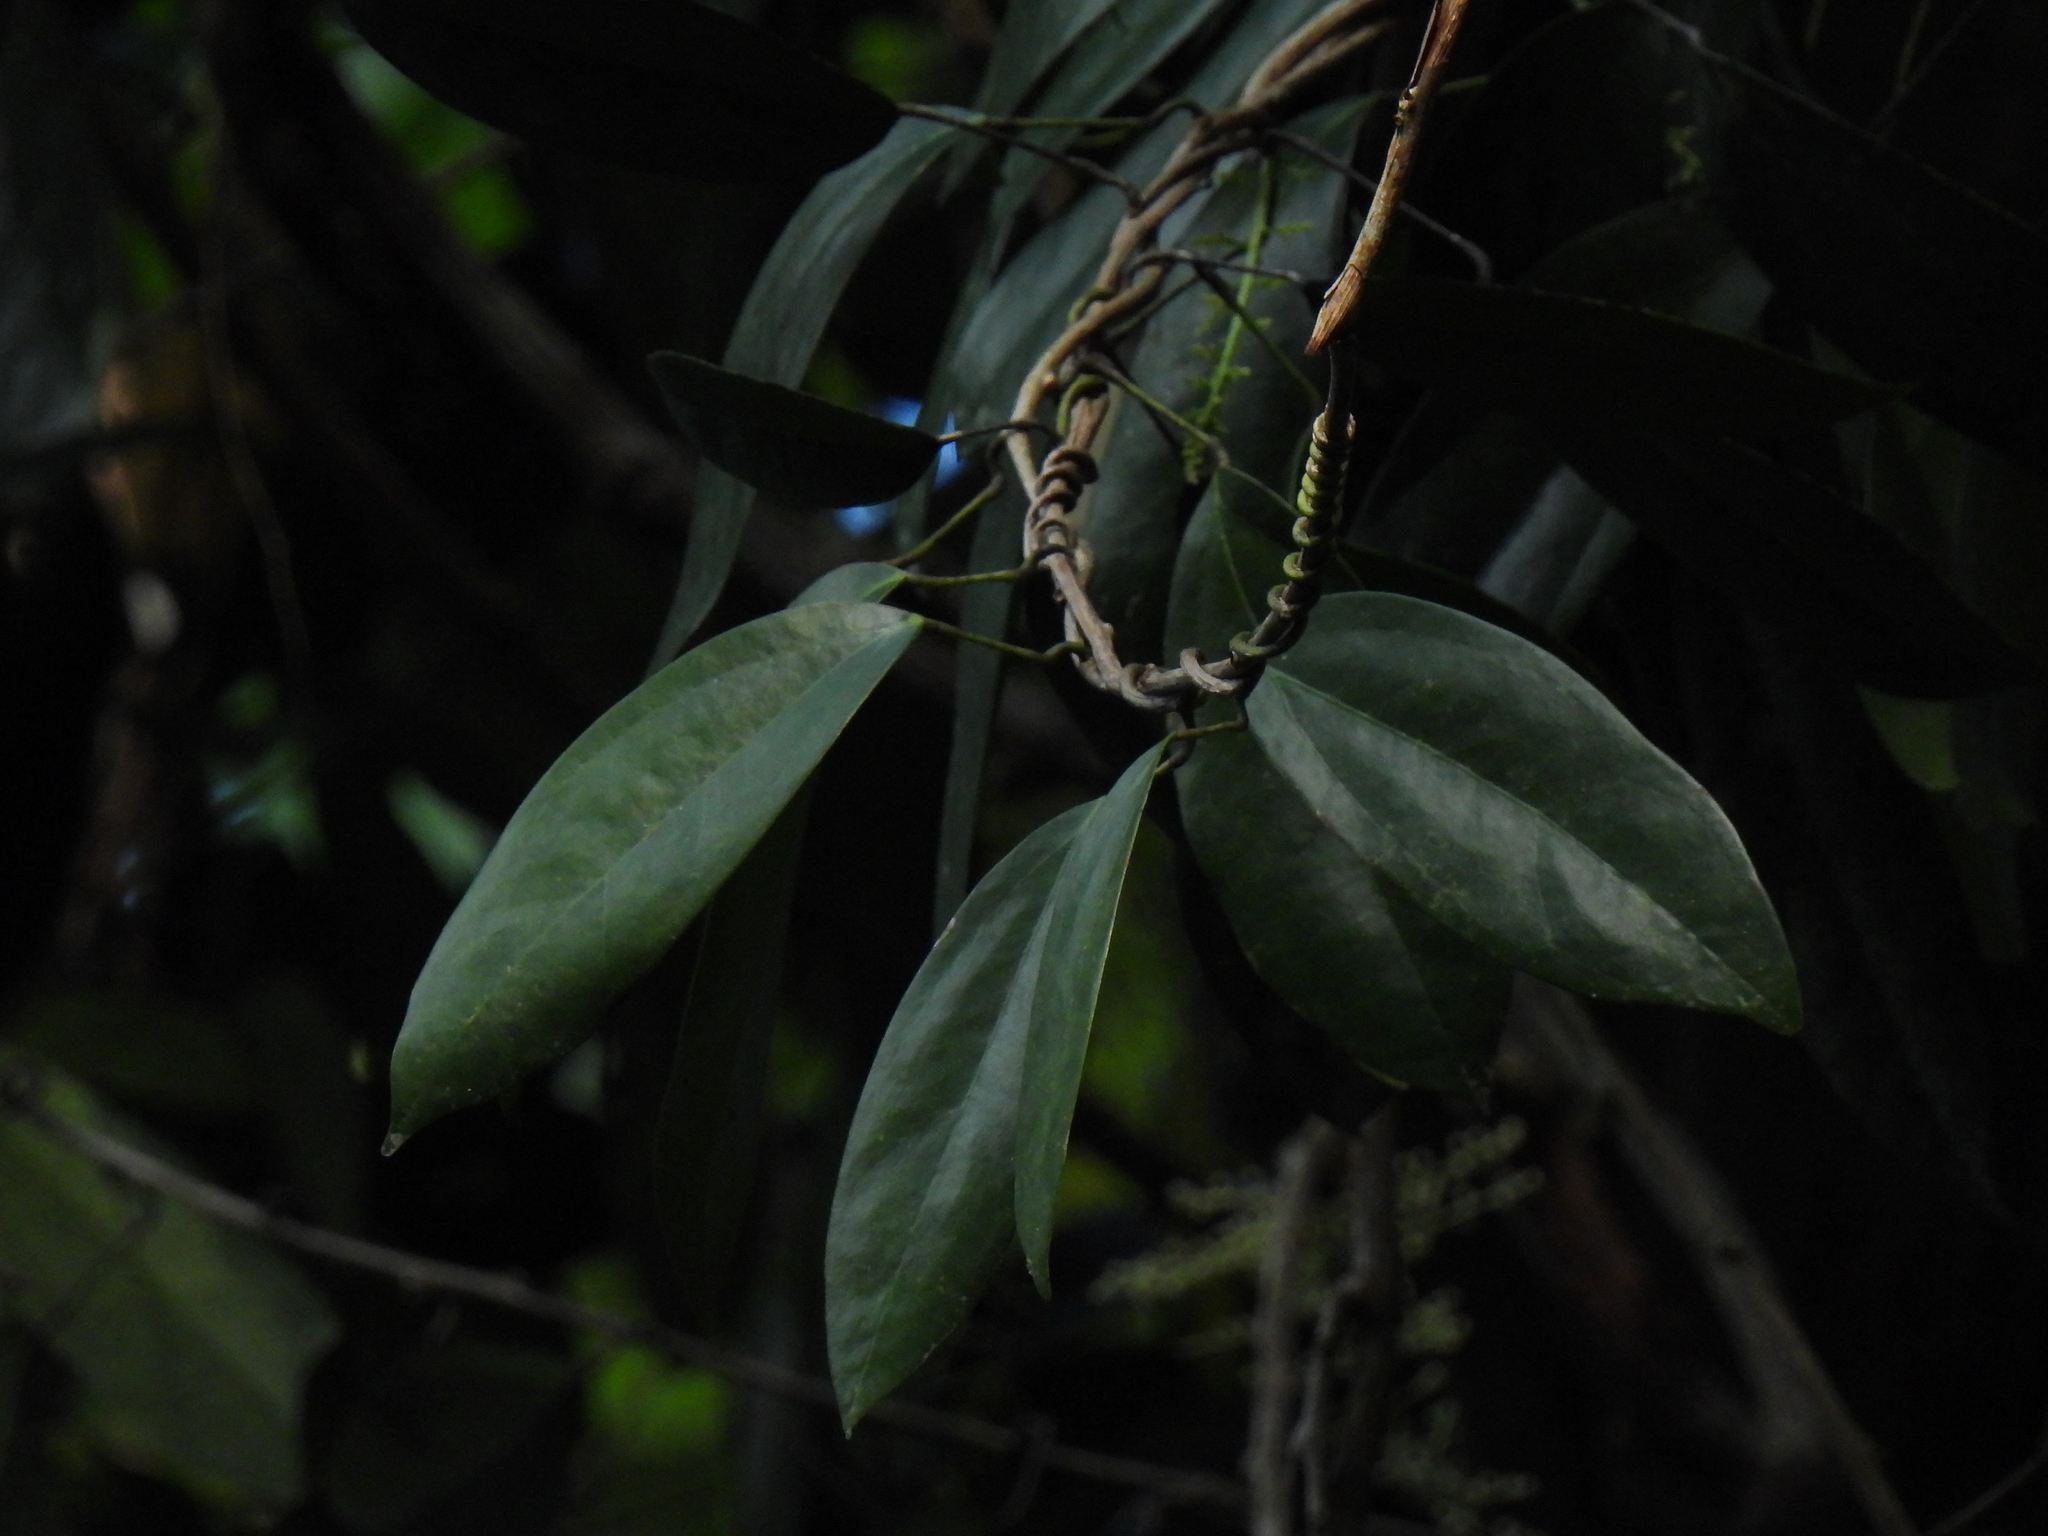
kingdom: Plantae
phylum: Tracheophyta
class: Magnoliopsida
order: Ranunculales
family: Menispermaceae
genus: Fibraurea
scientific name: Fibraurea tinctoria
